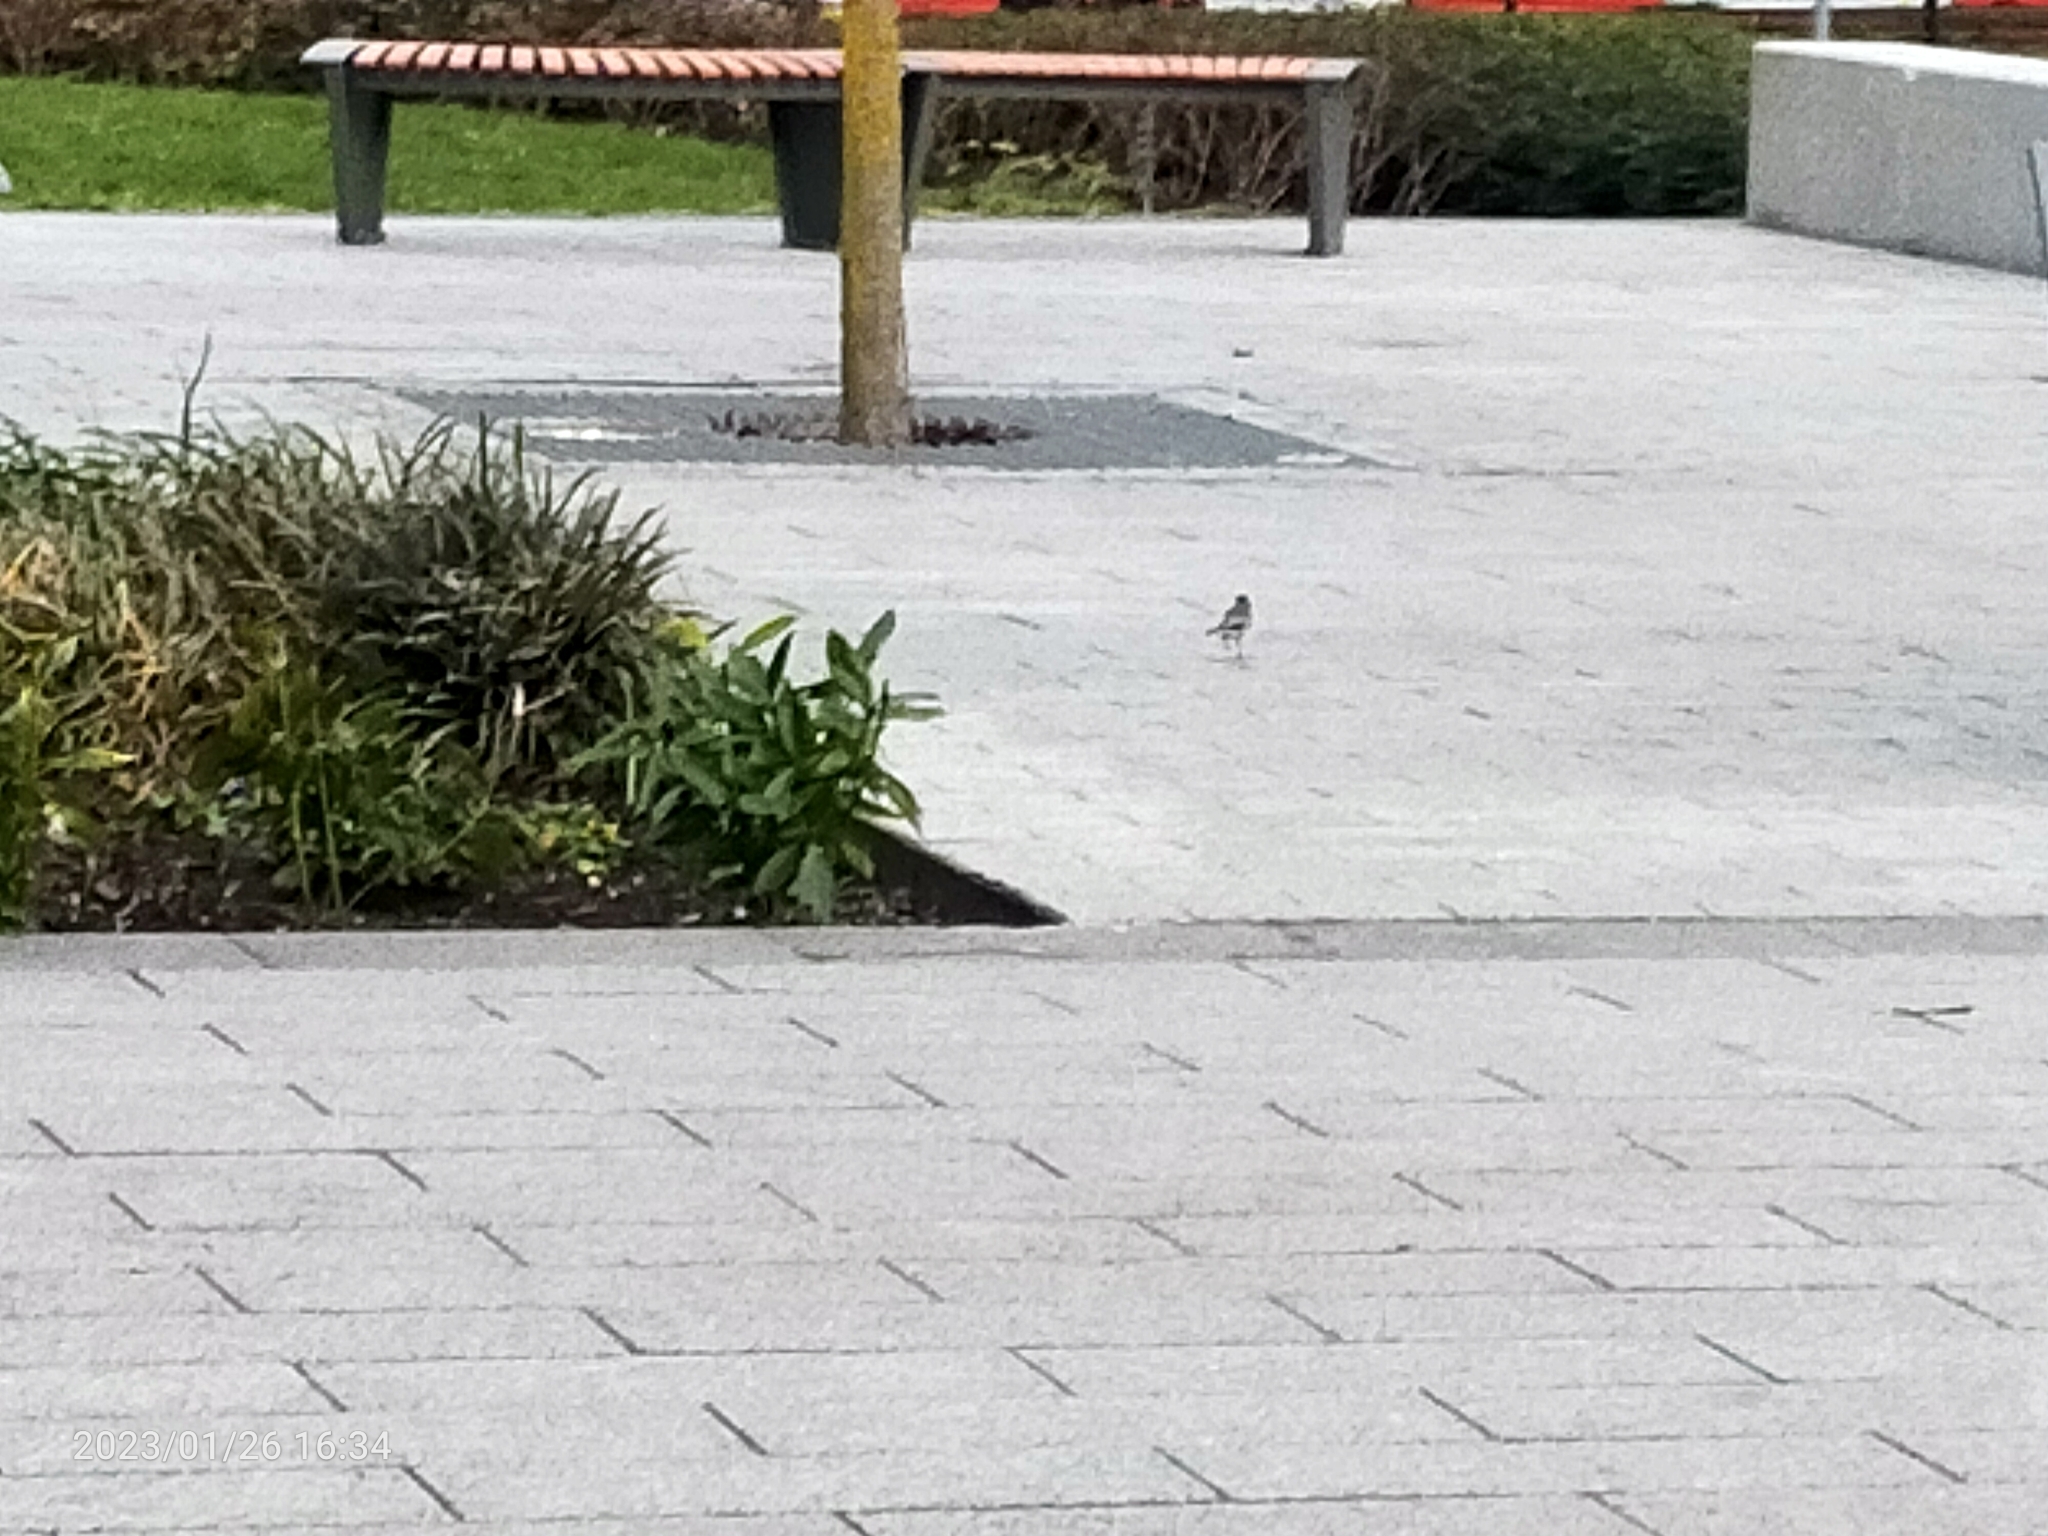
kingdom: Animalia
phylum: Chordata
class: Aves
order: Passeriformes
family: Motacillidae
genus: Motacilla
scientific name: Motacilla alba
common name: White wagtail
